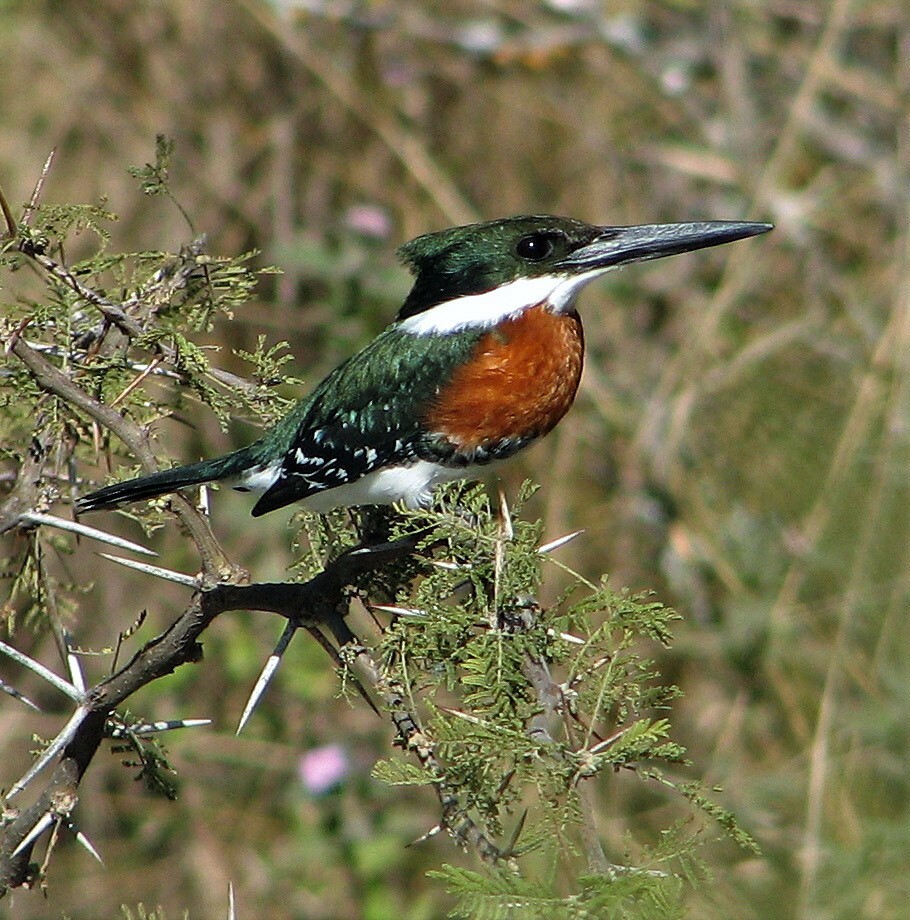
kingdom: Animalia
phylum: Chordata
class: Aves
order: Coraciiformes
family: Alcedinidae
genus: Chloroceryle
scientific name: Chloroceryle americana
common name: Green kingfisher
